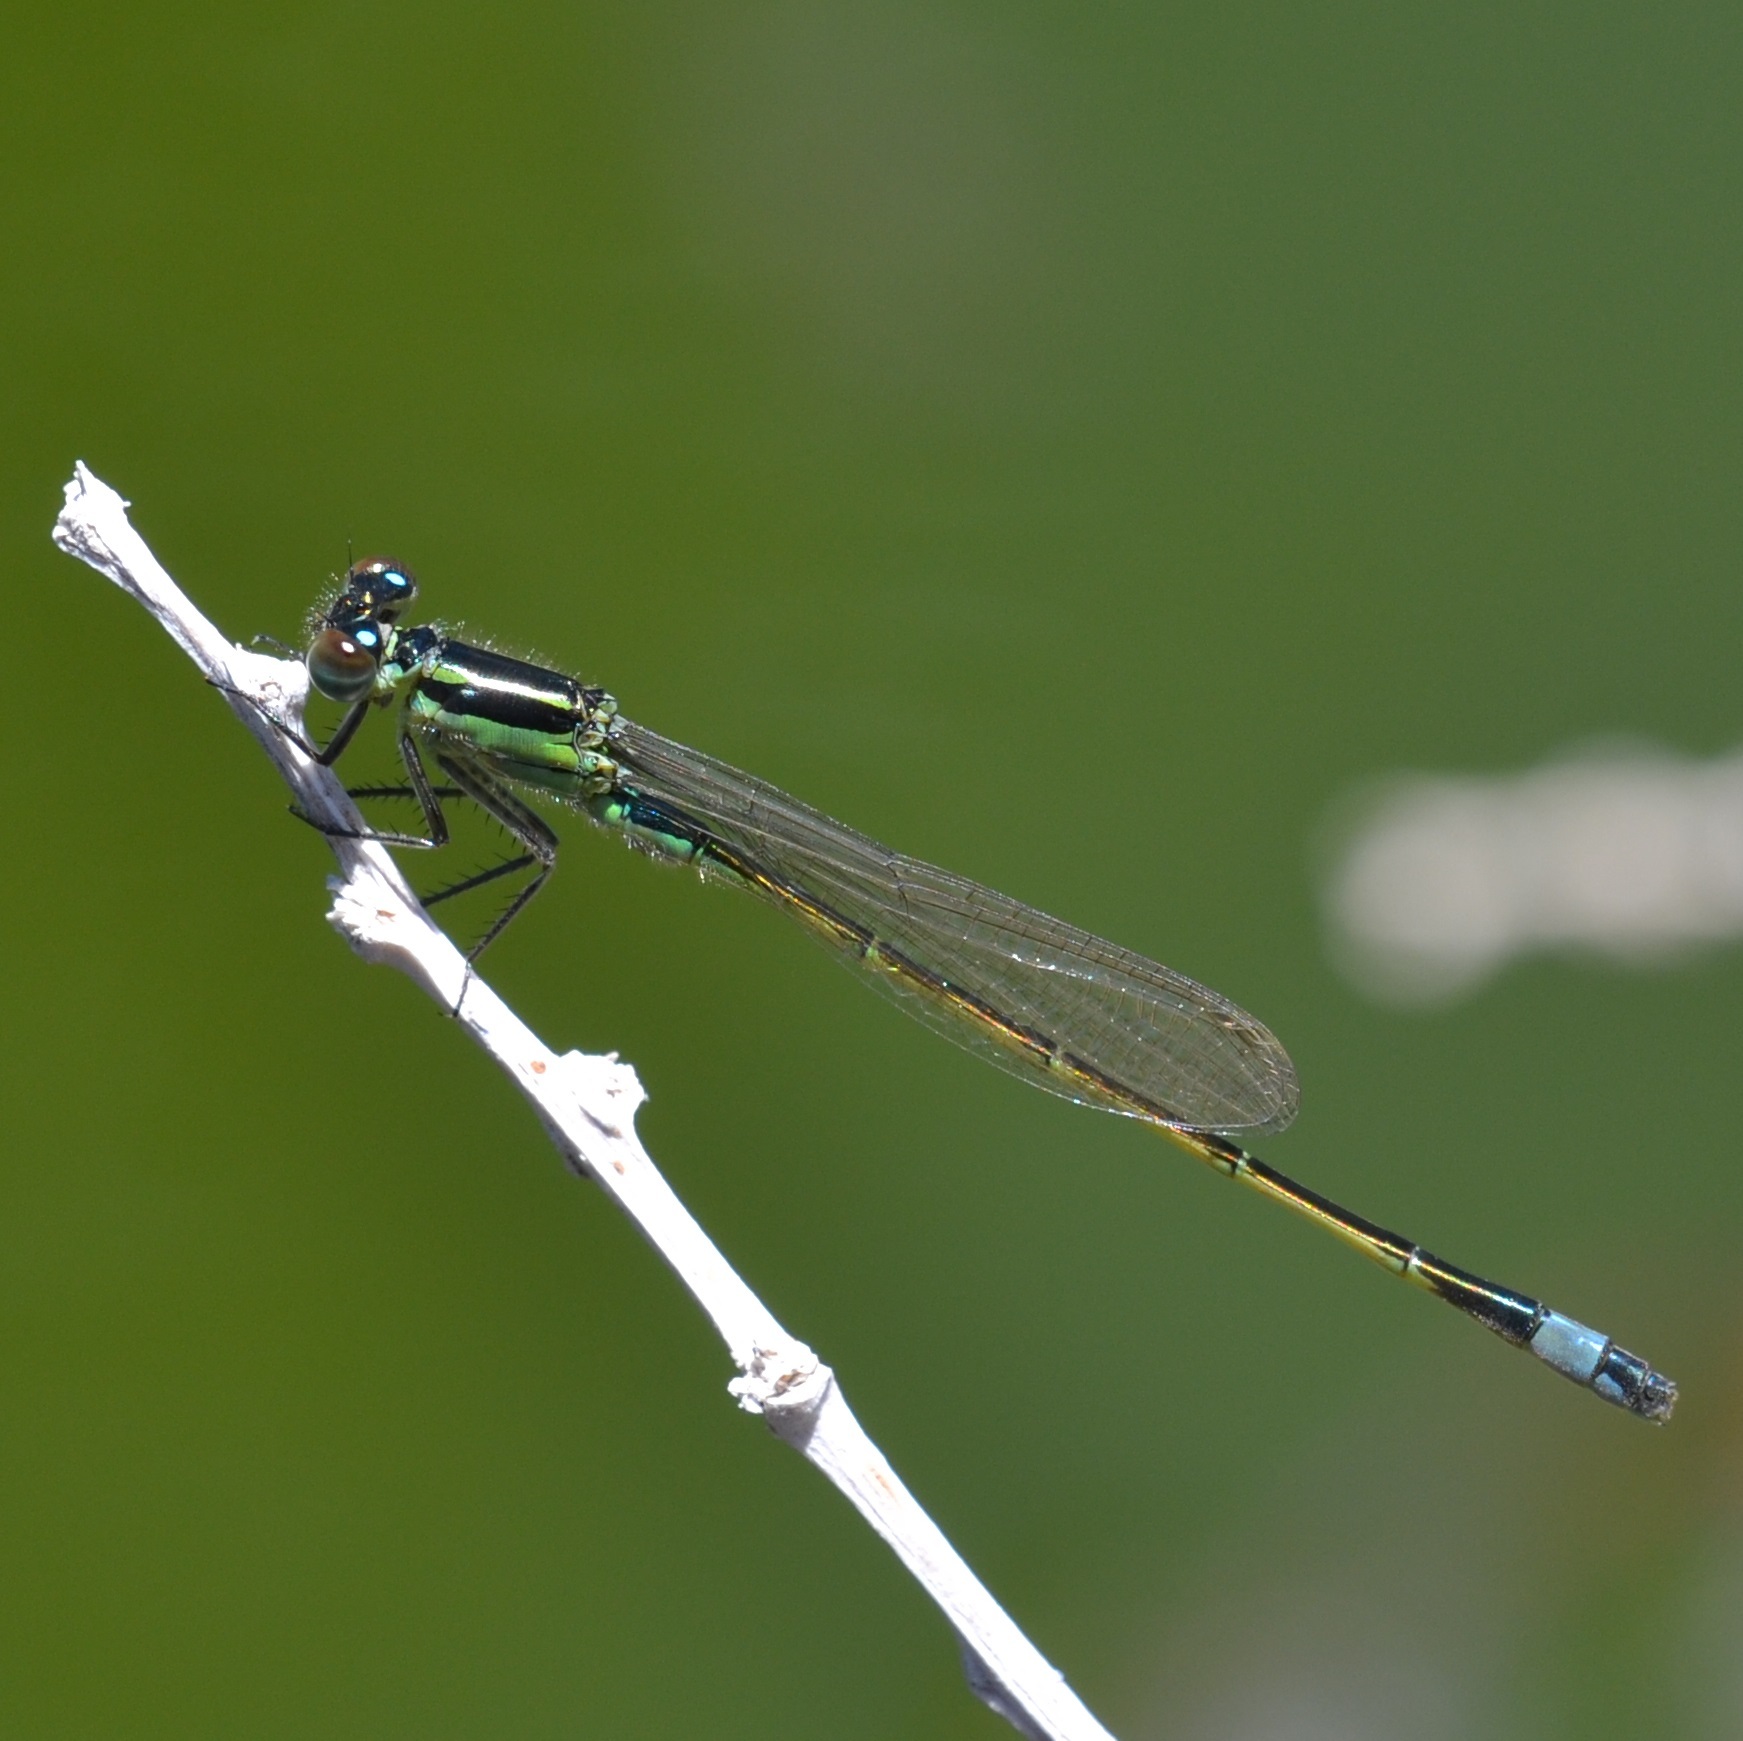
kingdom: Animalia
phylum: Arthropoda
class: Insecta
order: Odonata
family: Coenagrionidae
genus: Ischnura
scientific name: Ischnura ramburii
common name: Rambur's forktail
